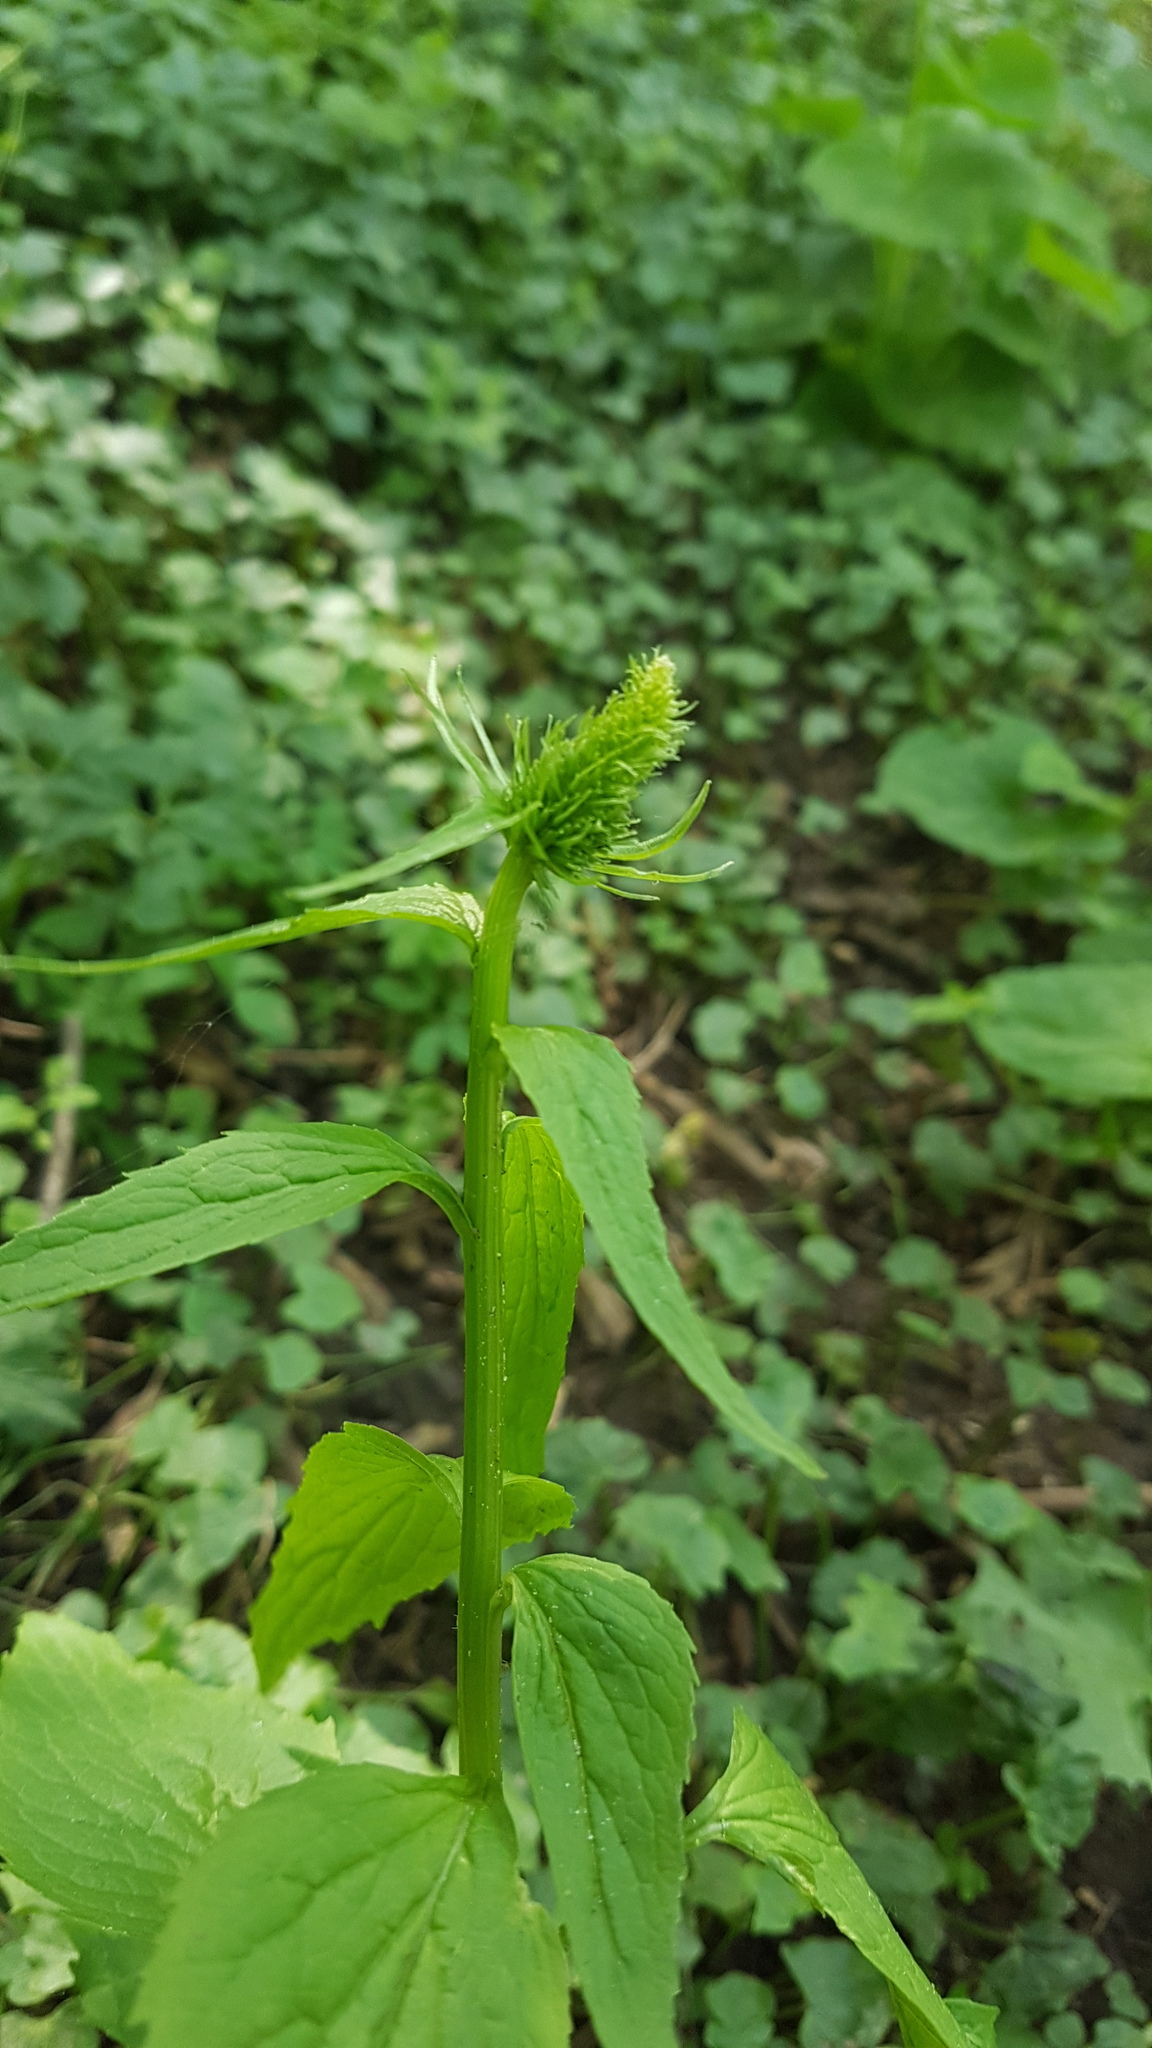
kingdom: Plantae
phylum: Tracheophyta
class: Magnoliopsida
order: Asterales
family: Campanulaceae
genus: Phyteuma
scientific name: Phyteuma spicatum
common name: Spiked rampion
